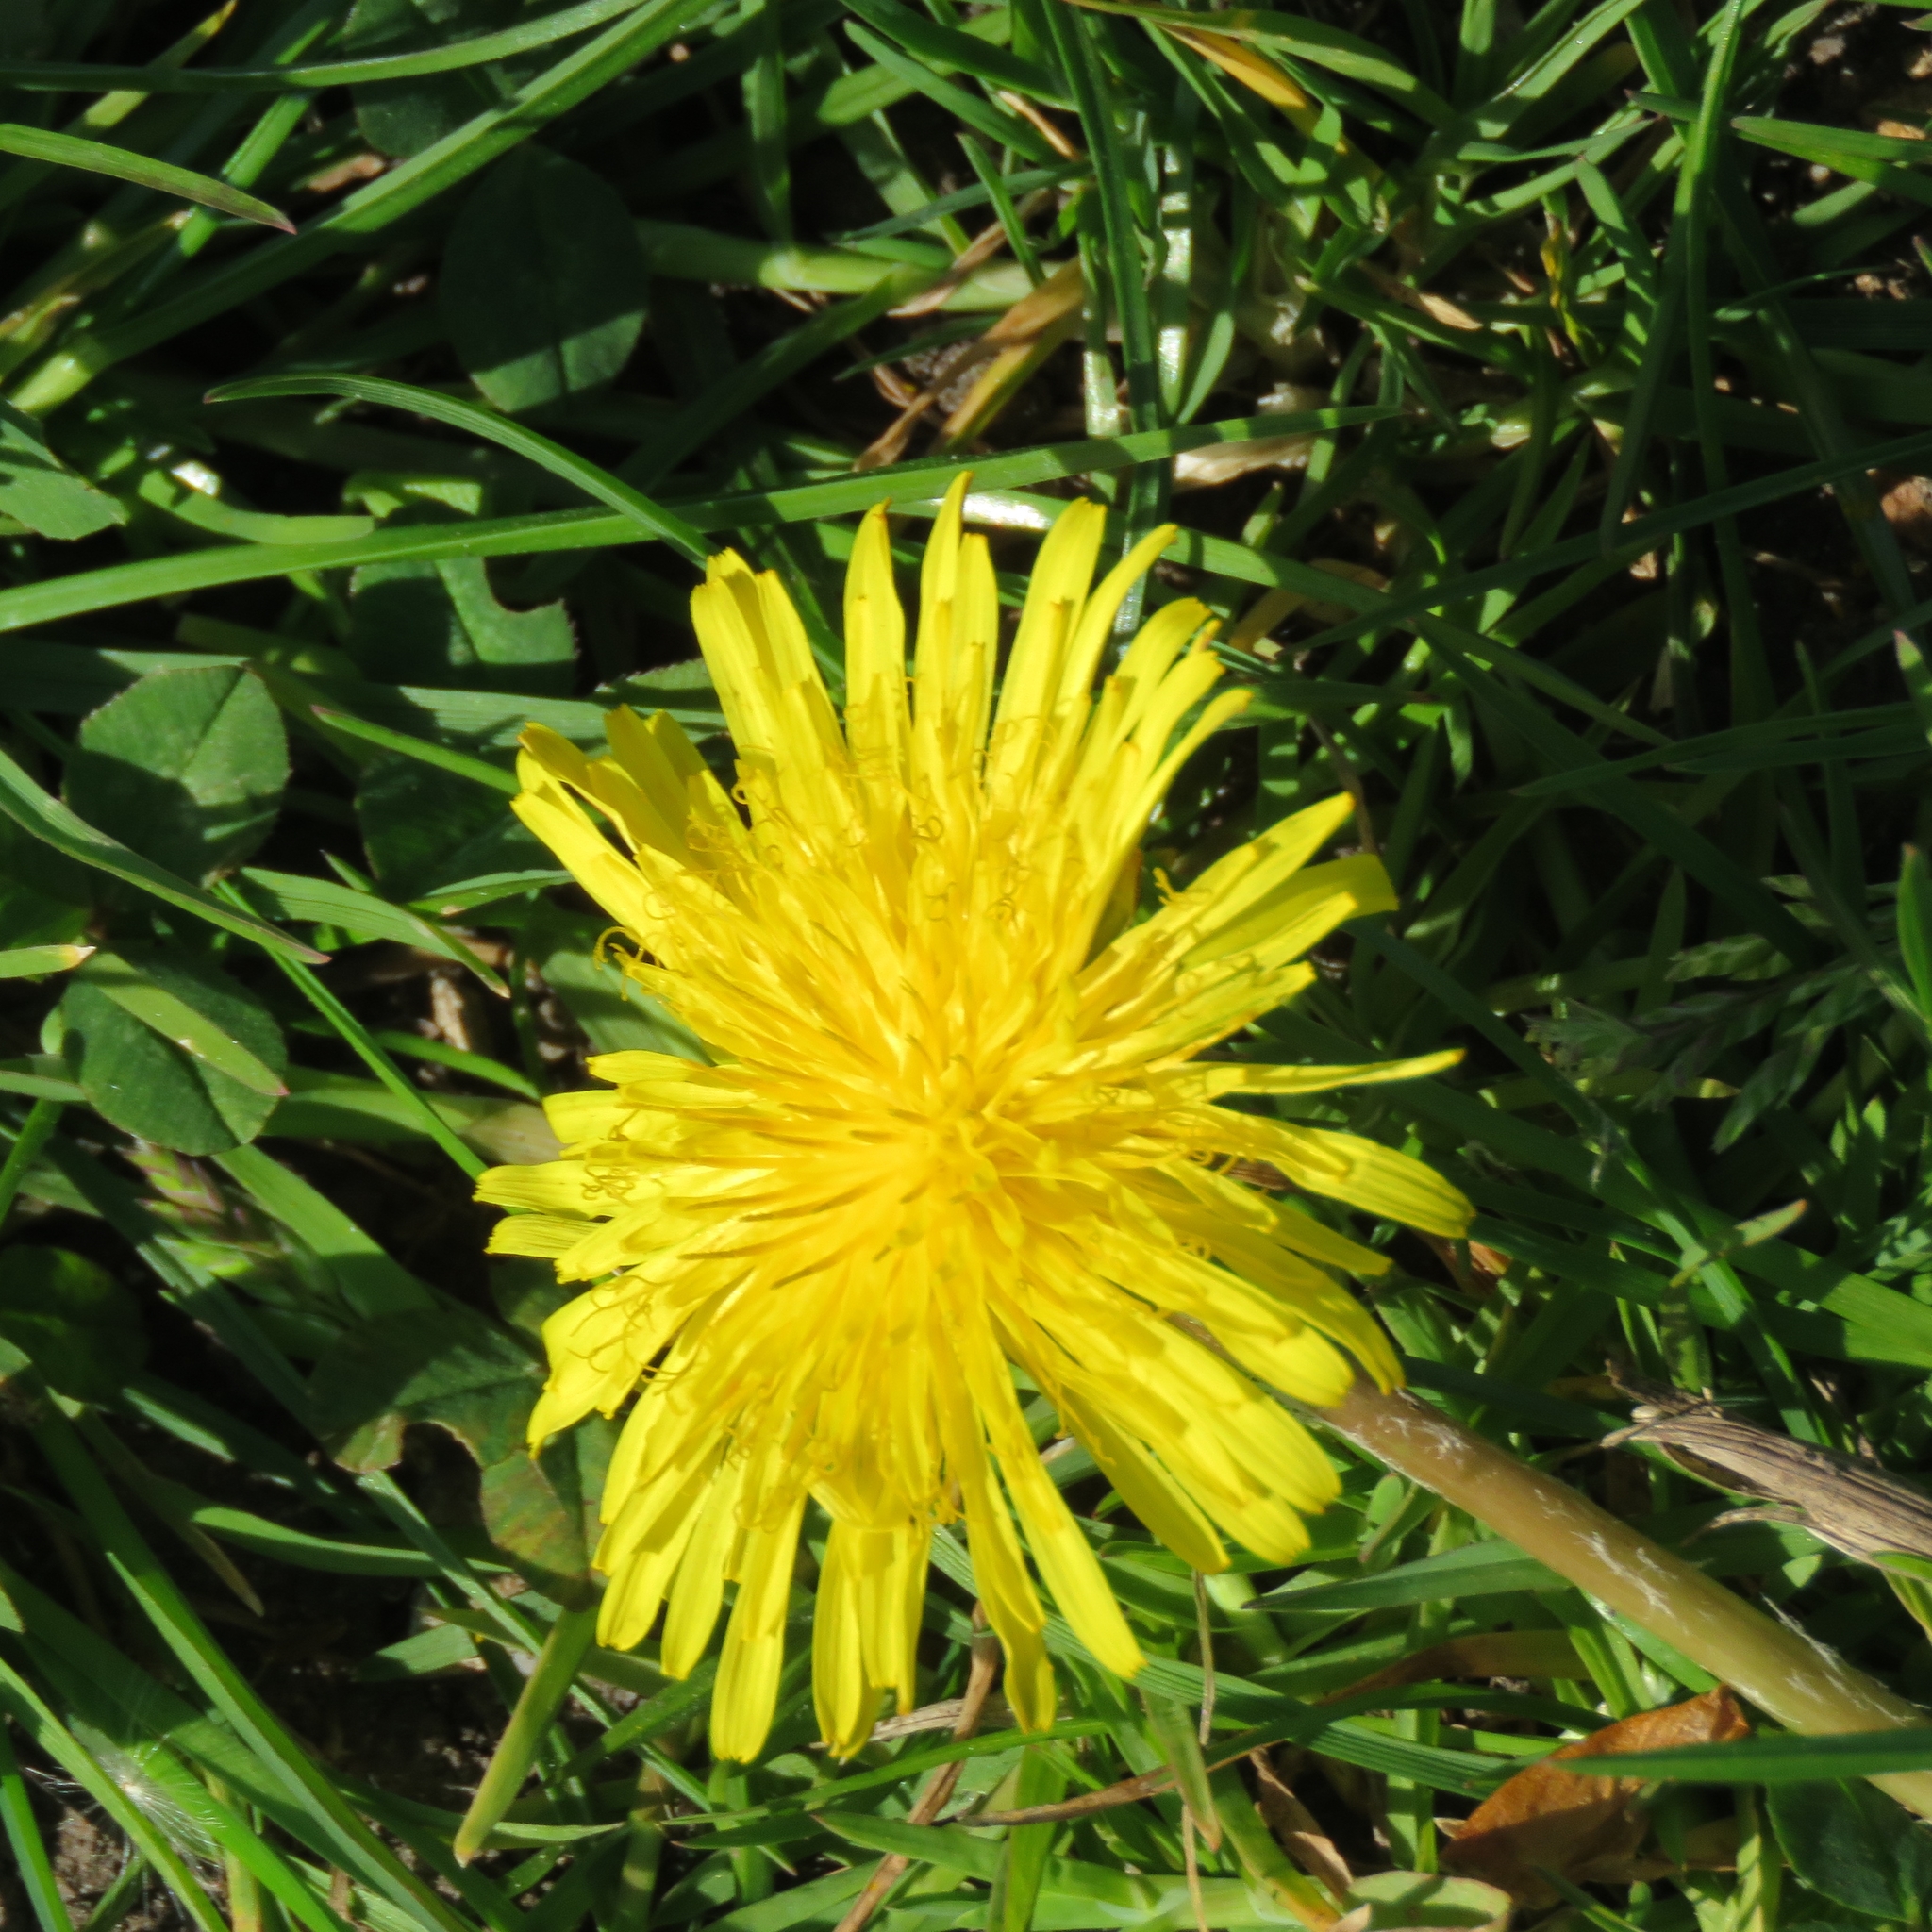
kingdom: Plantae
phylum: Tracheophyta
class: Magnoliopsida
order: Asterales
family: Asteraceae
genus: Taraxacum
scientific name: Taraxacum officinale
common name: Common dandelion
